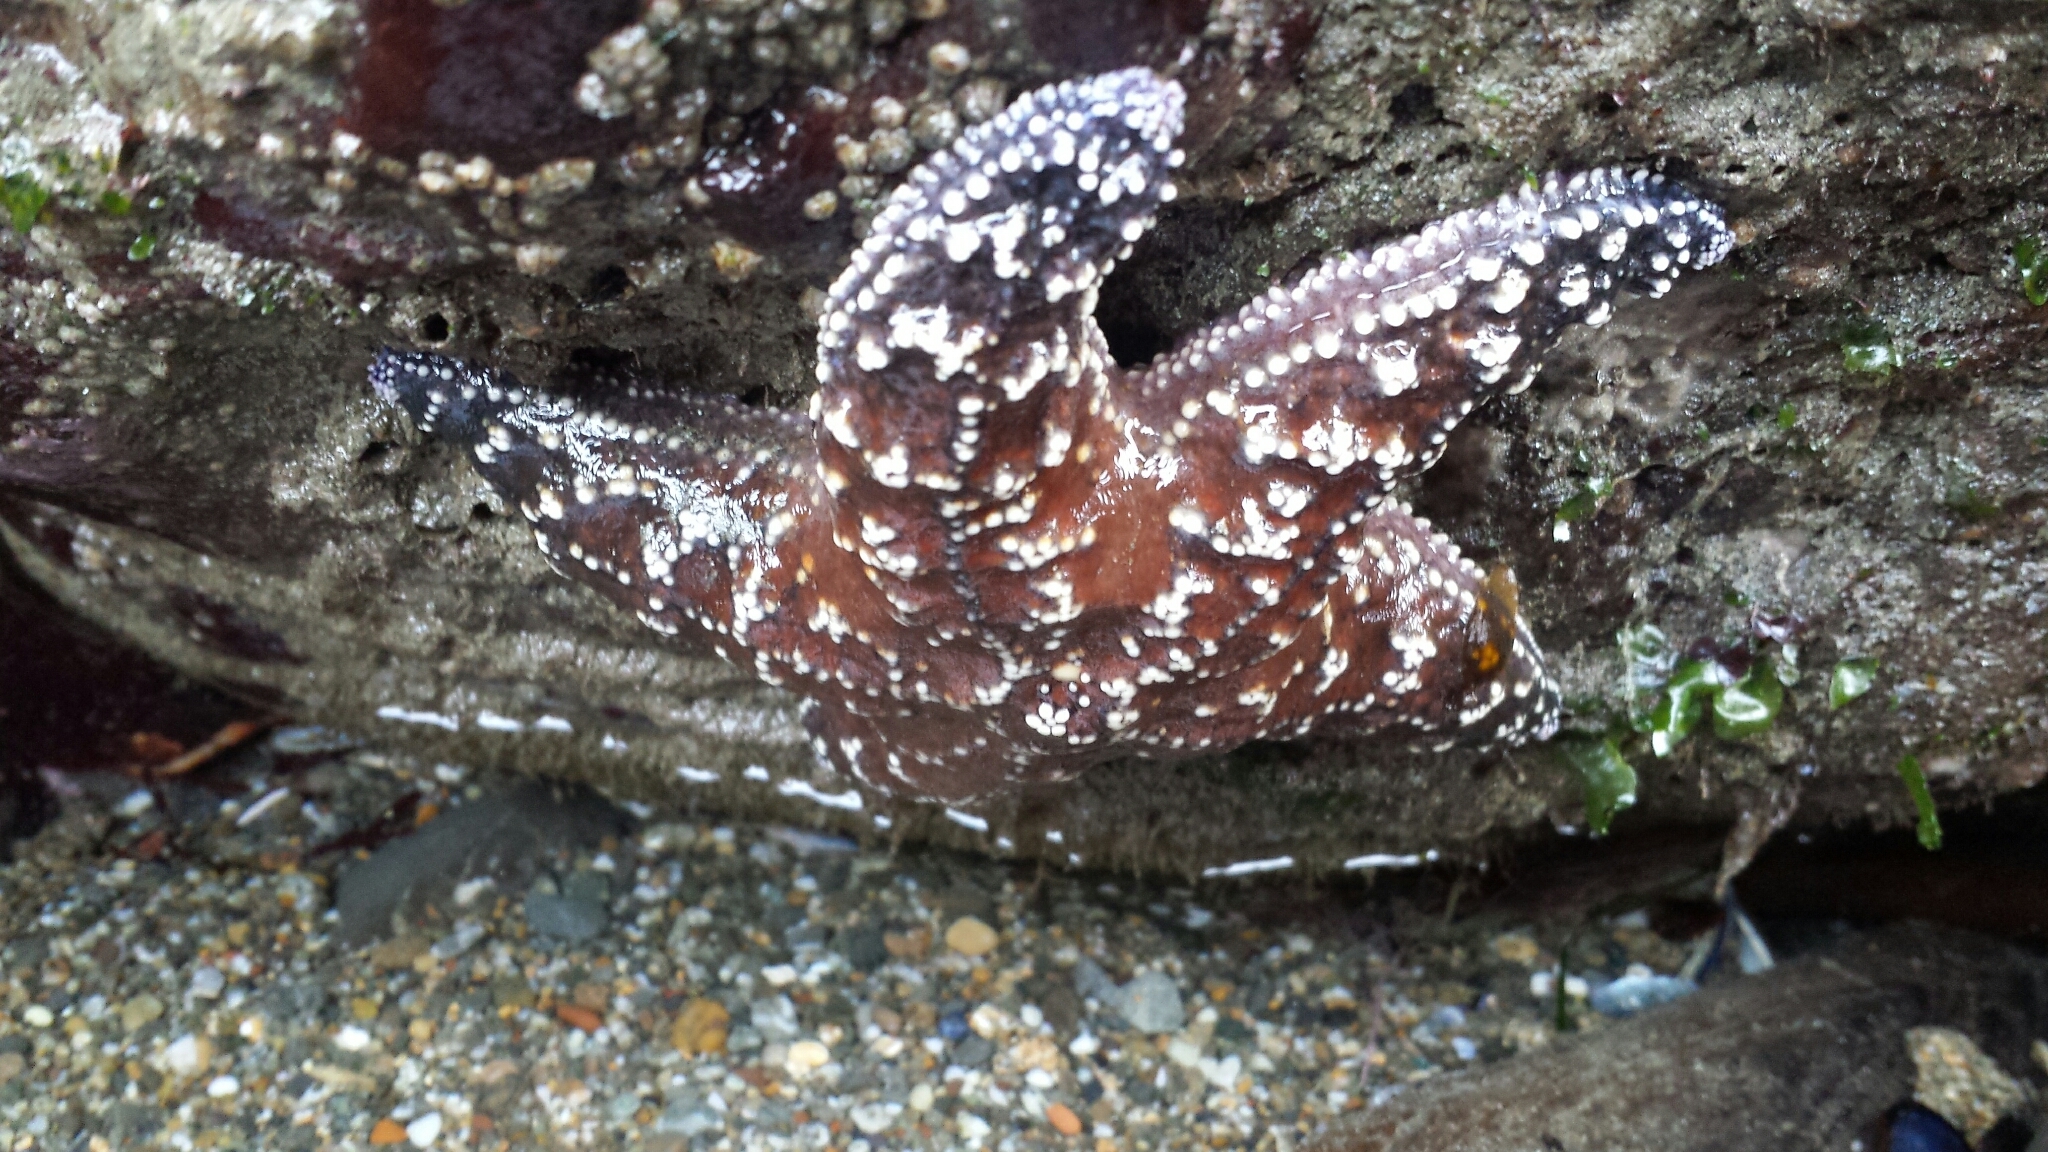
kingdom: Animalia
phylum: Echinodermata
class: Asteroidea
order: Forcipulatida
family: Asteriidae
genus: Pisaster
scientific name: Pisaster ochraceus
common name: Ochre stars
